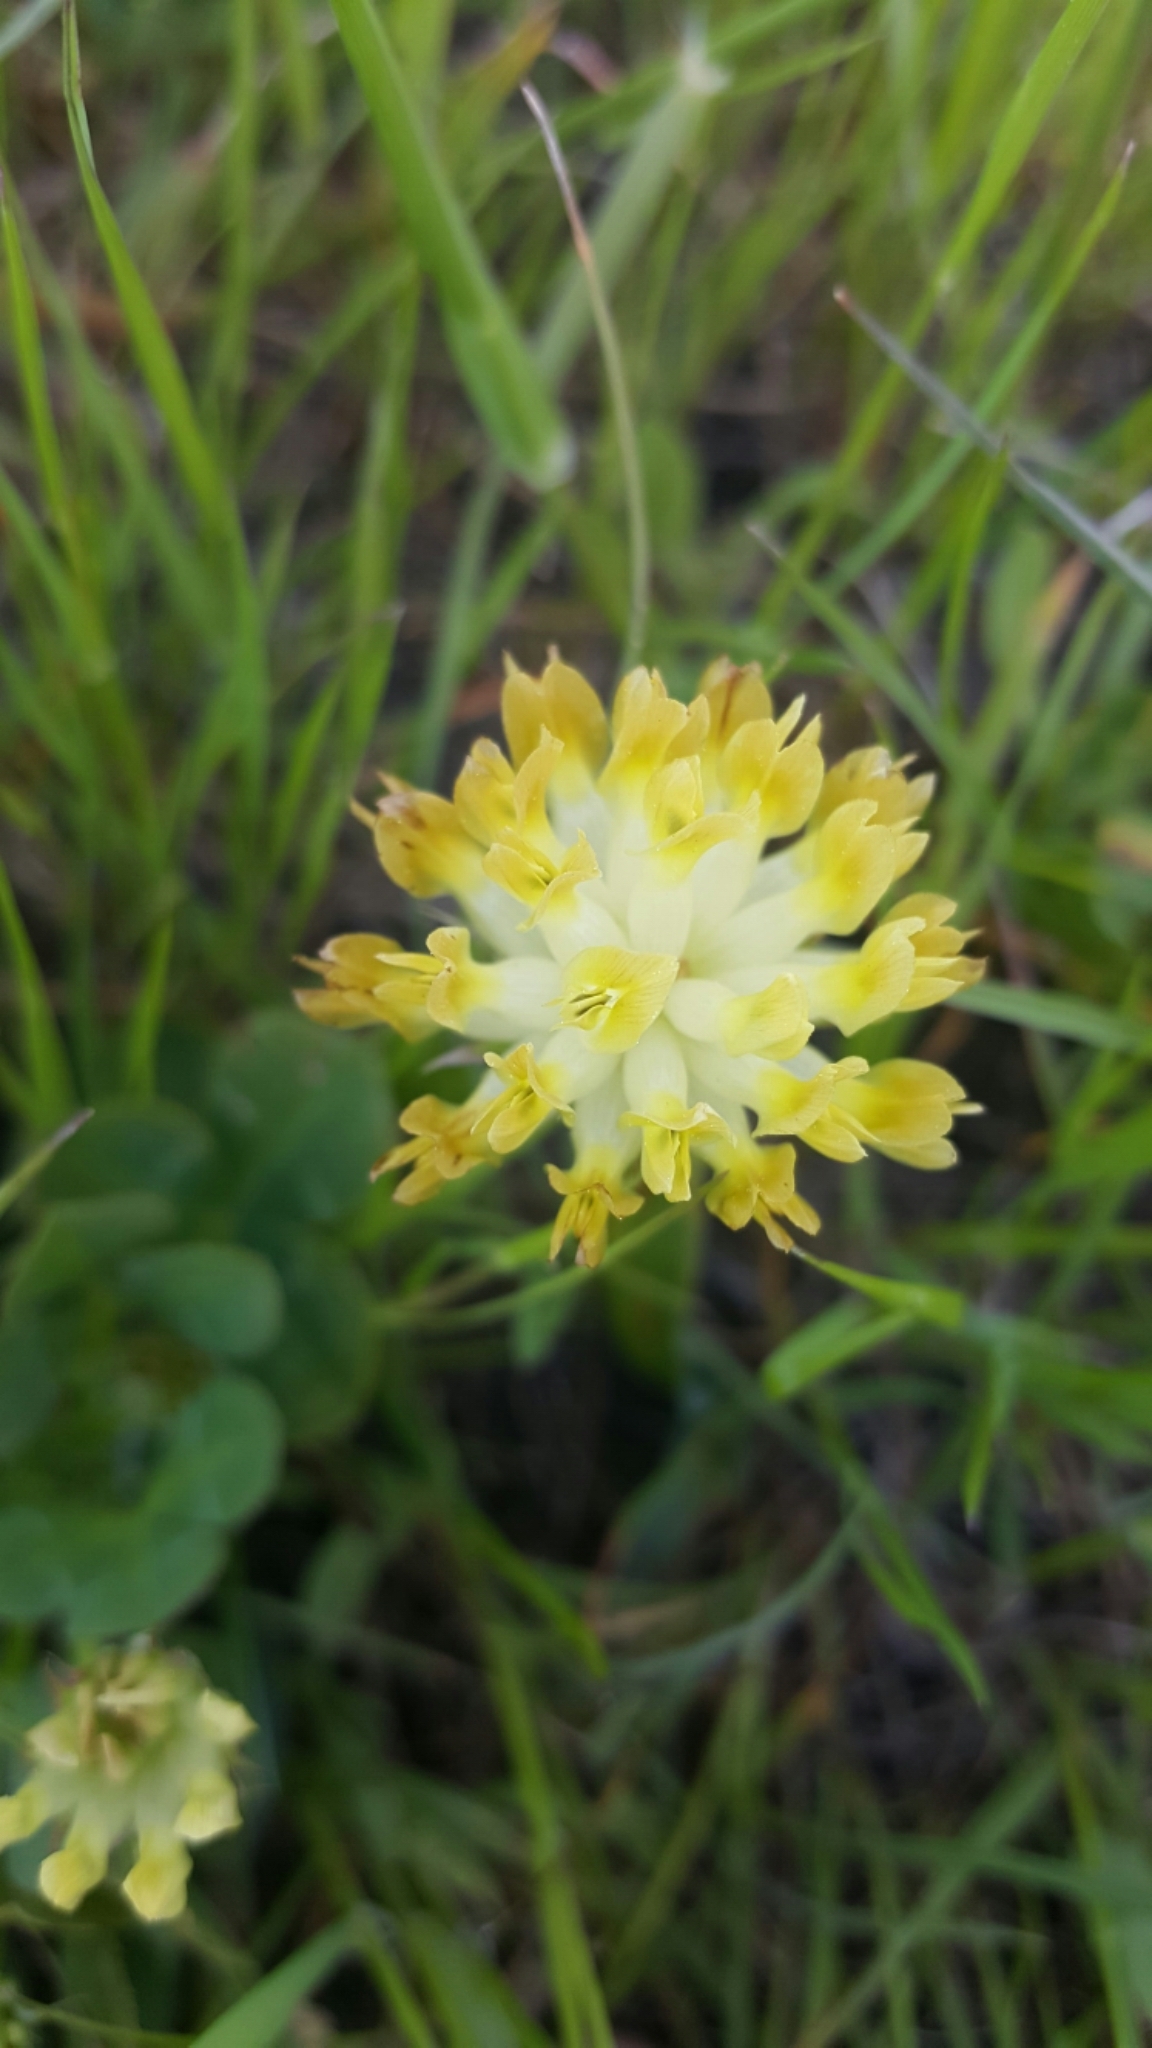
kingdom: Plantae
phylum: Tracheophyta
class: Magnoliopsida
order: Fabales
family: Fabaceae
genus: Trifolium
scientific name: Trifolium fucatum
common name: Puff clover
